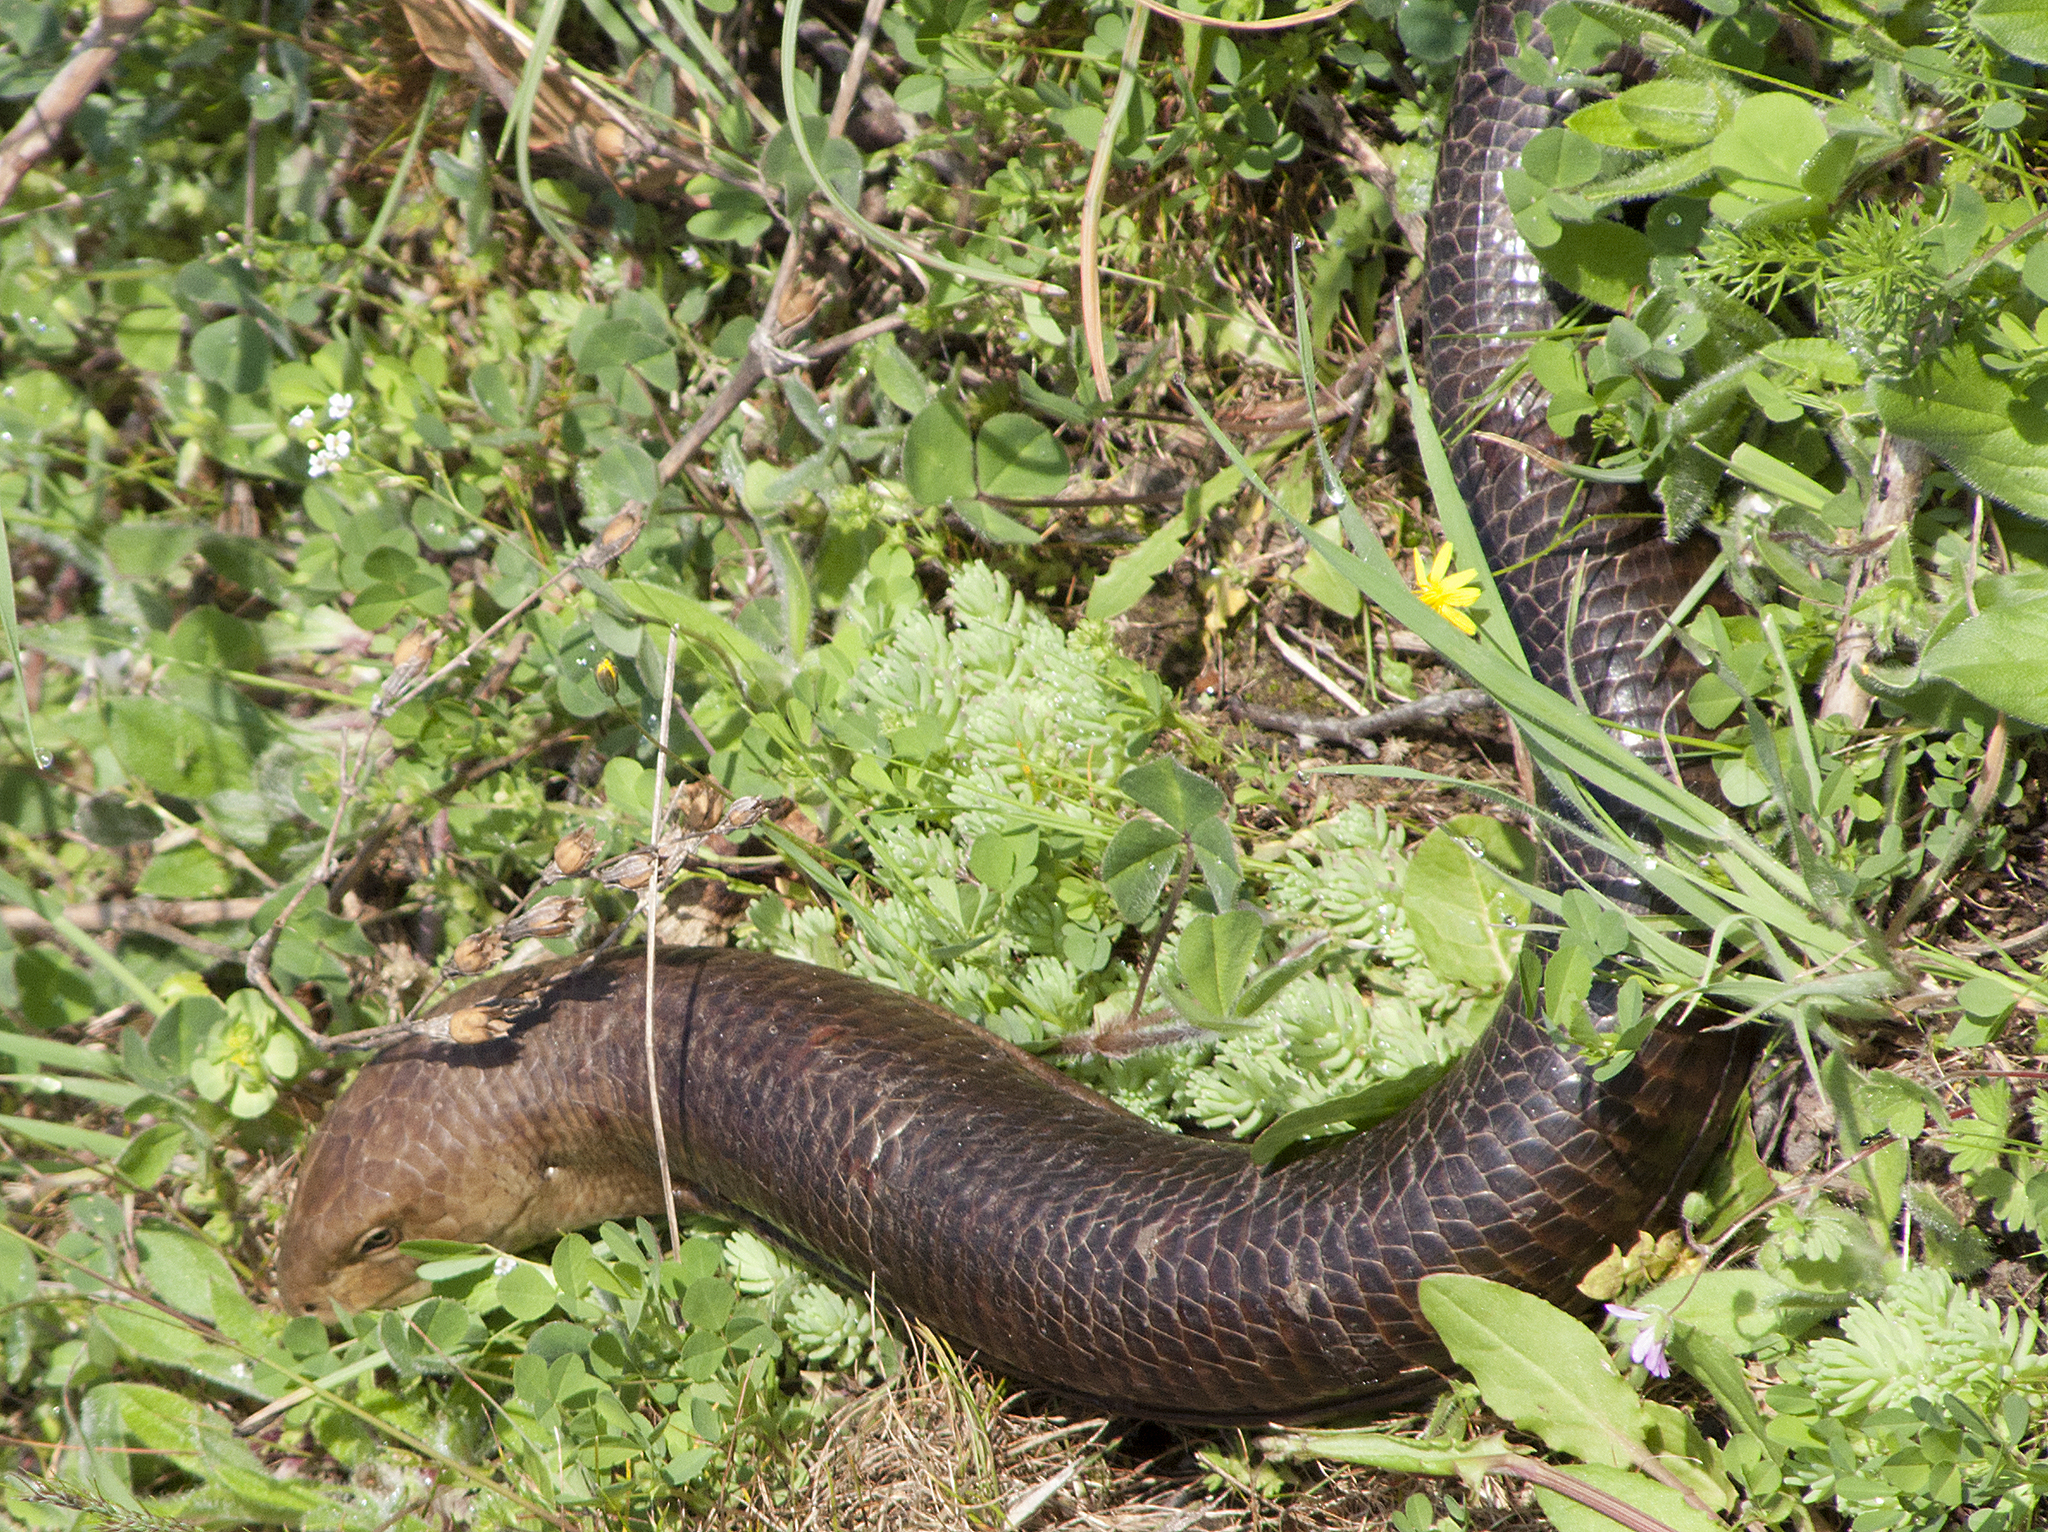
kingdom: Animalia
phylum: Chordata
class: Squamata
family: Anguidae
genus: Pseudopus
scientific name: Pseudopus apodus
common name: European glass lizard
